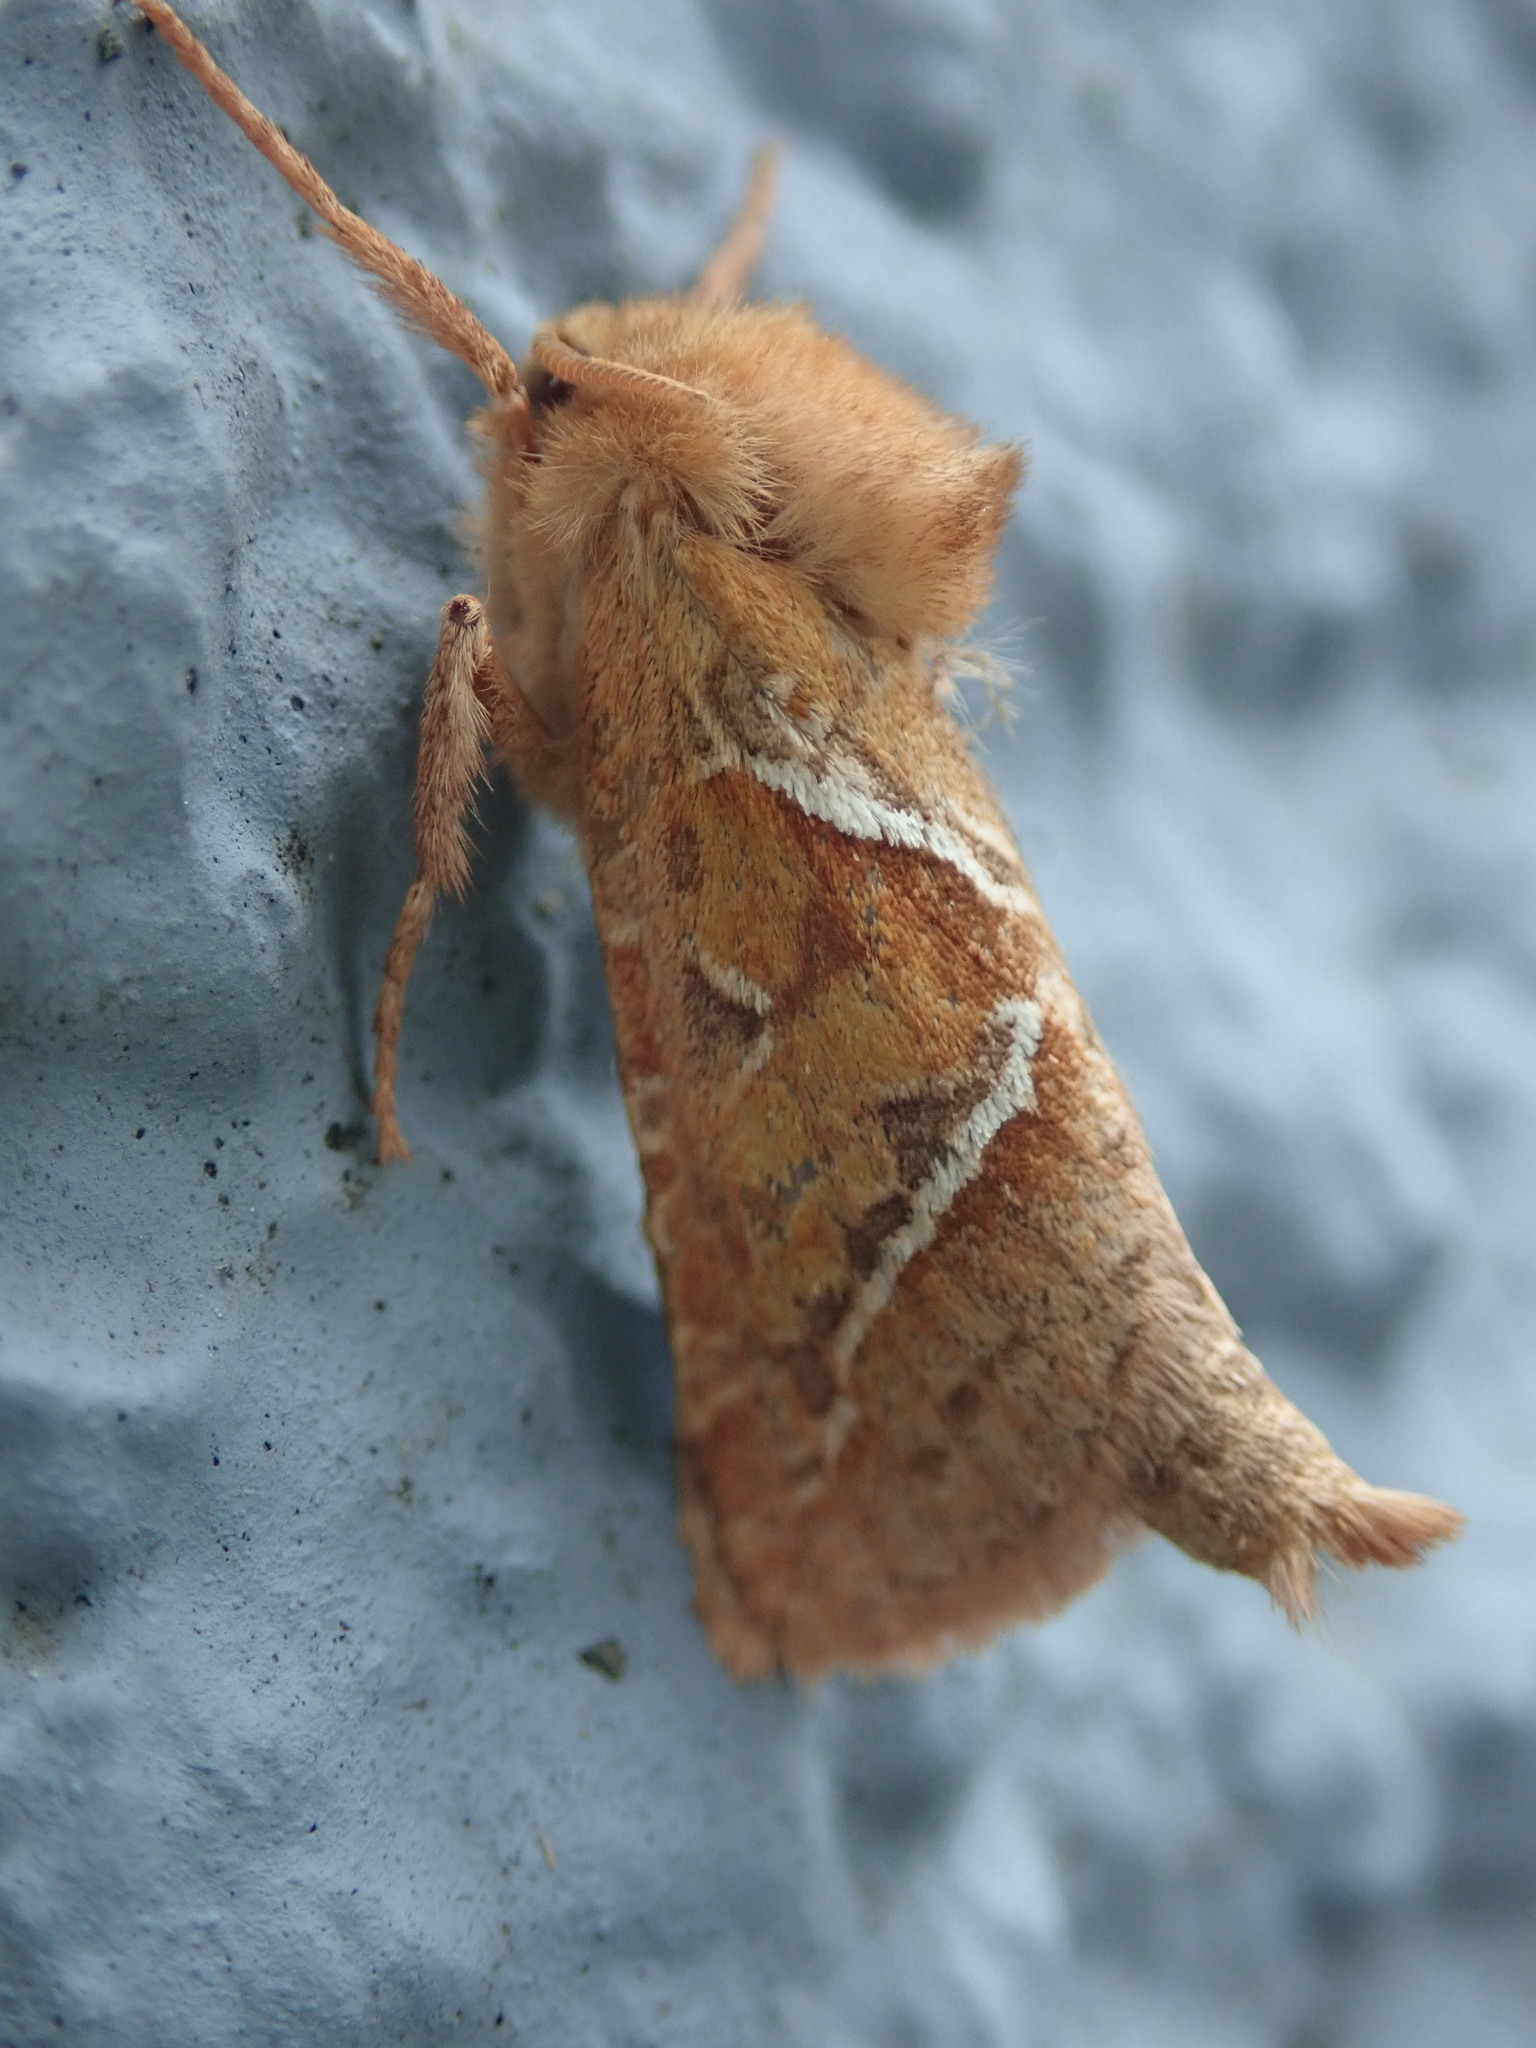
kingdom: Animalia
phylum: Arthropoda
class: Insecta
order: Lepidoptera
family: Hepialidae
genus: Triodia
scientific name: Triodia sylvina
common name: Orange swift
